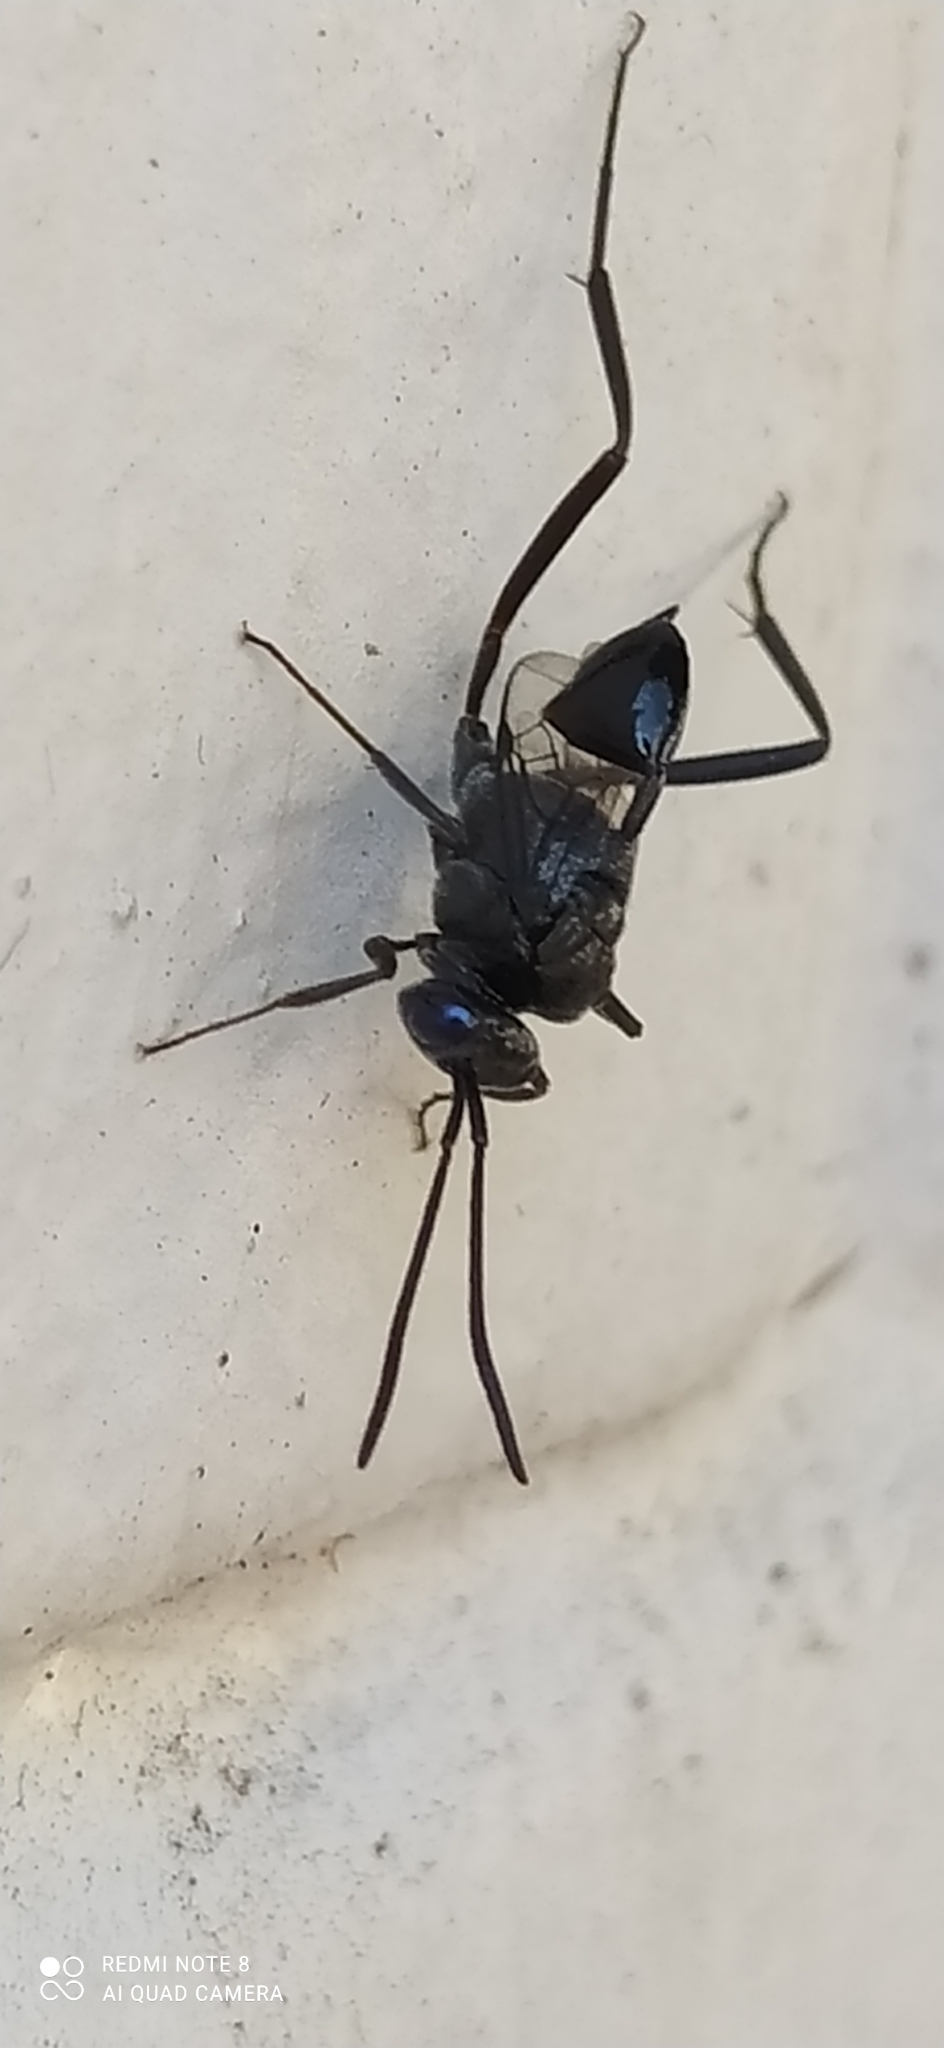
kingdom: Animalia
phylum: Arthropoda
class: Insecta
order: Hymenoptera
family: Evaniidae
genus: Evania
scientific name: Evania appendigaster
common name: Ensign wasp
